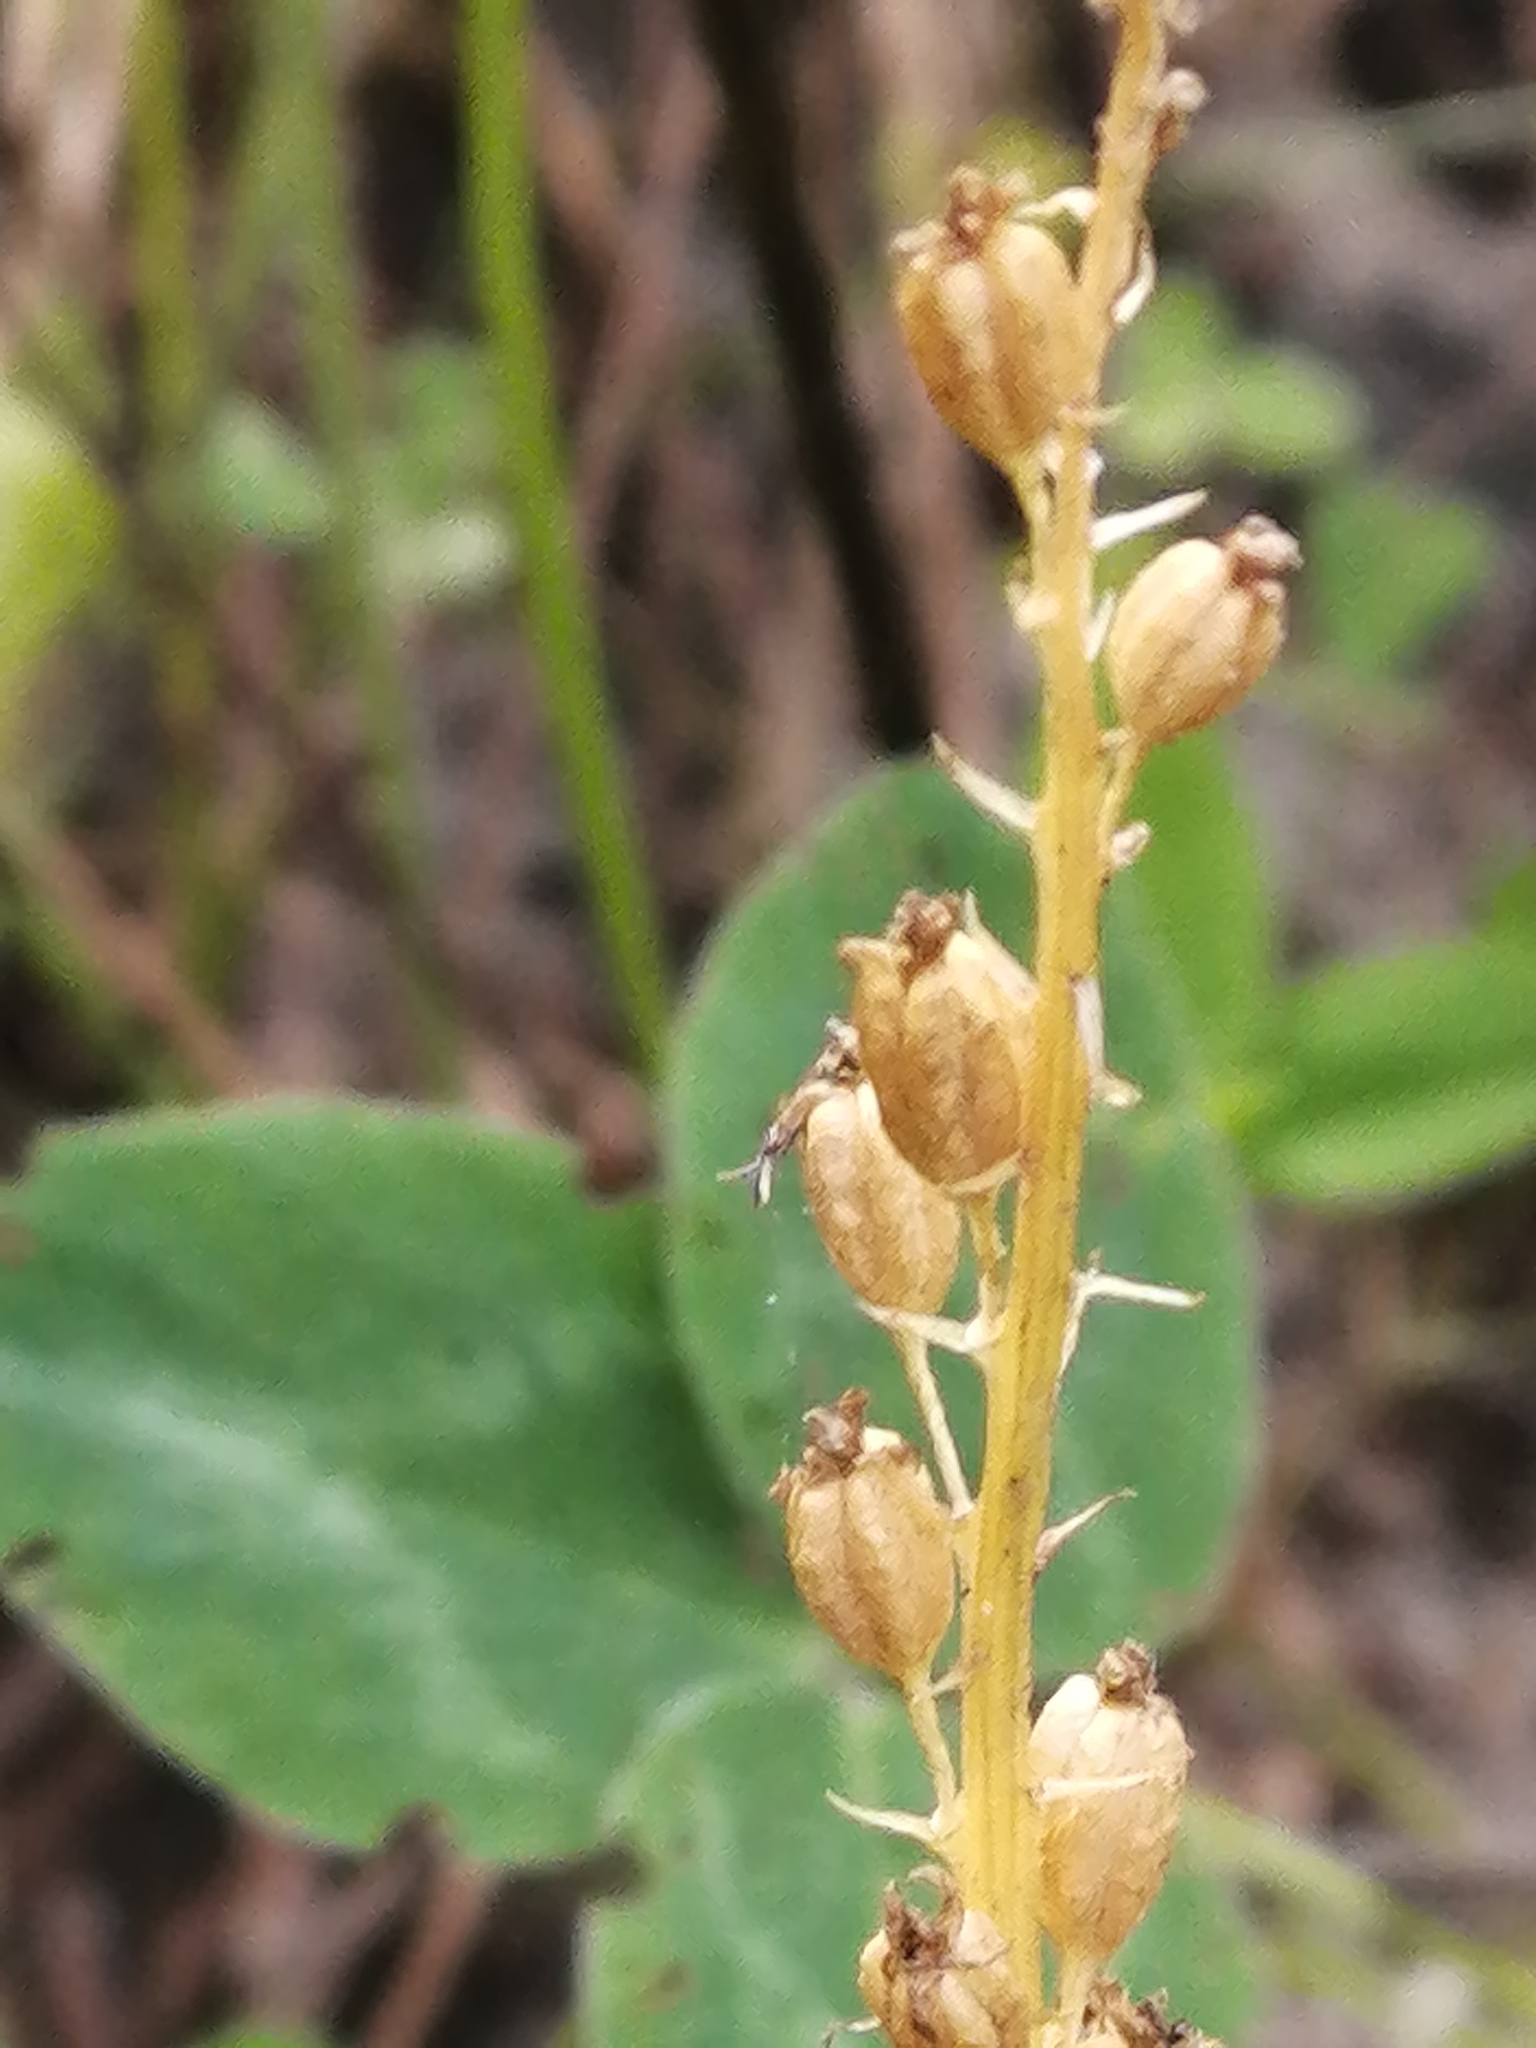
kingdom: Plantae
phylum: Tracheophyta
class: Liliopsida
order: Asparagales
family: Orchidaceae
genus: Malaxis
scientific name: Malaxis monophyllos
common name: White adder's-mouth
